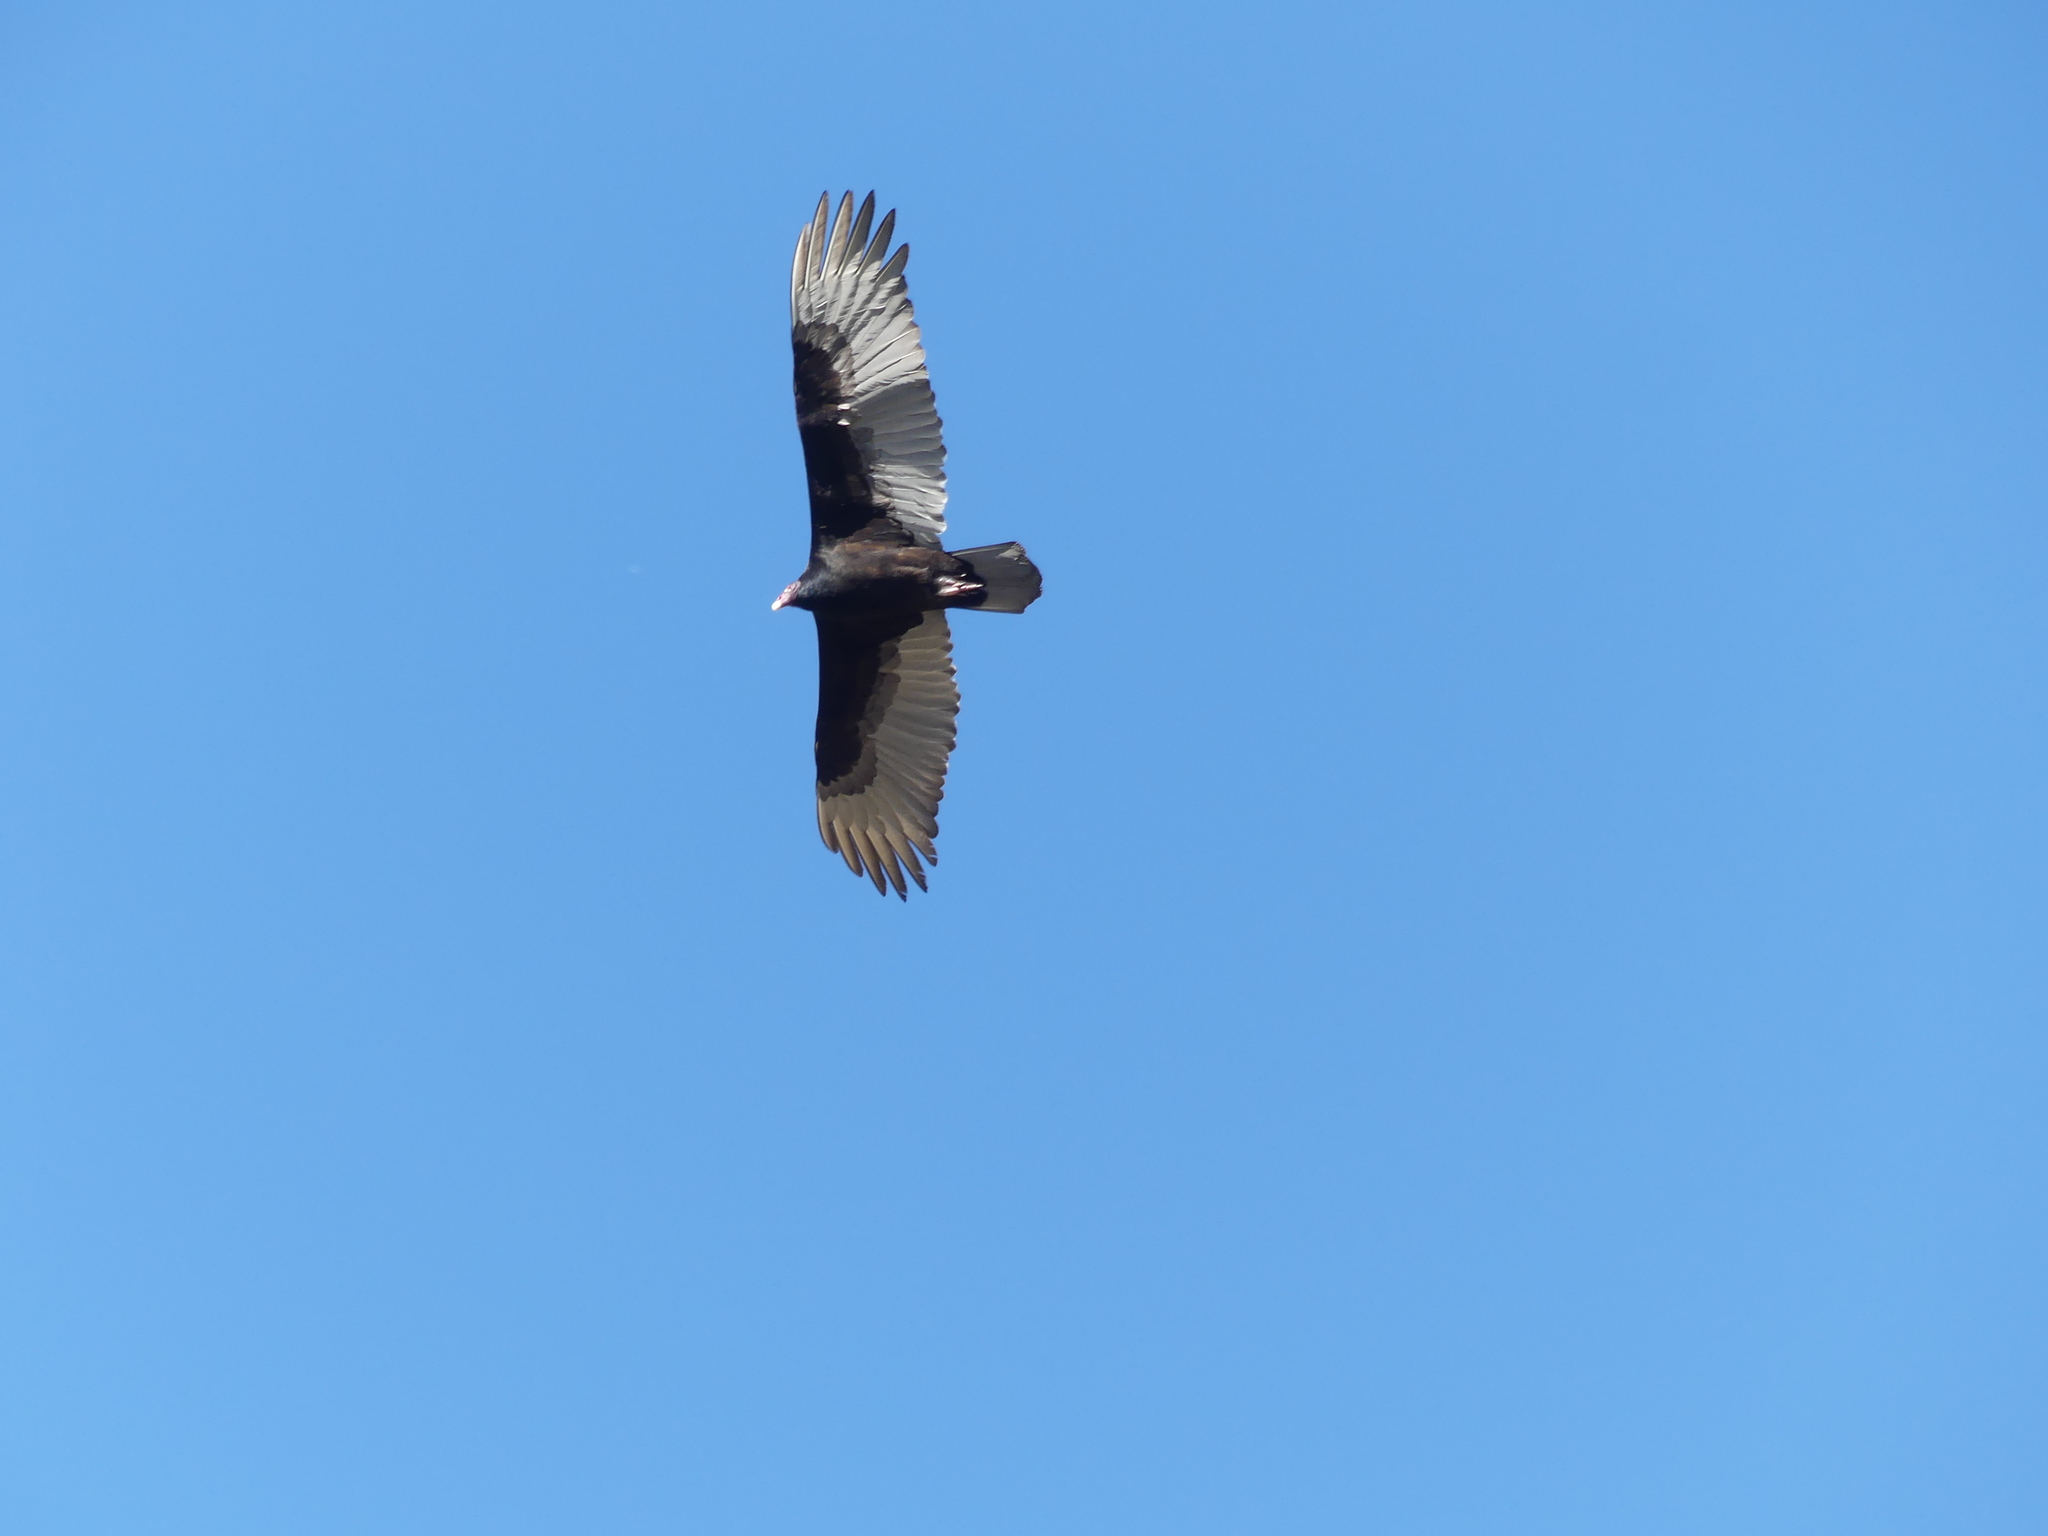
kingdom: Animalia
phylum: Chordata
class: Aves
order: Accipitriformes
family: Cathartidae
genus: Cathartes
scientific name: Cathartes aura
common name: Turkey vulture
